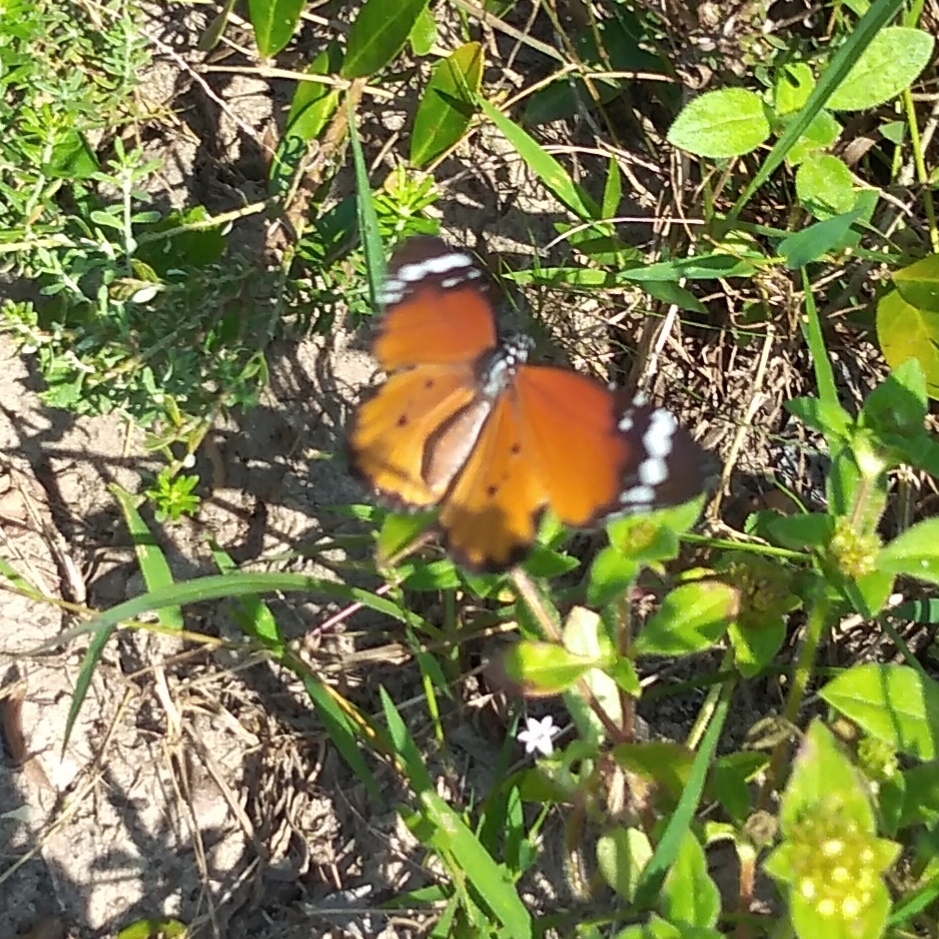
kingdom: Animalia
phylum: Arthropoda
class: Insecta
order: Lepidoptera
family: Nymphalidae
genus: Danaus
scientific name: Danaus chrysippus
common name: Plain tiger
